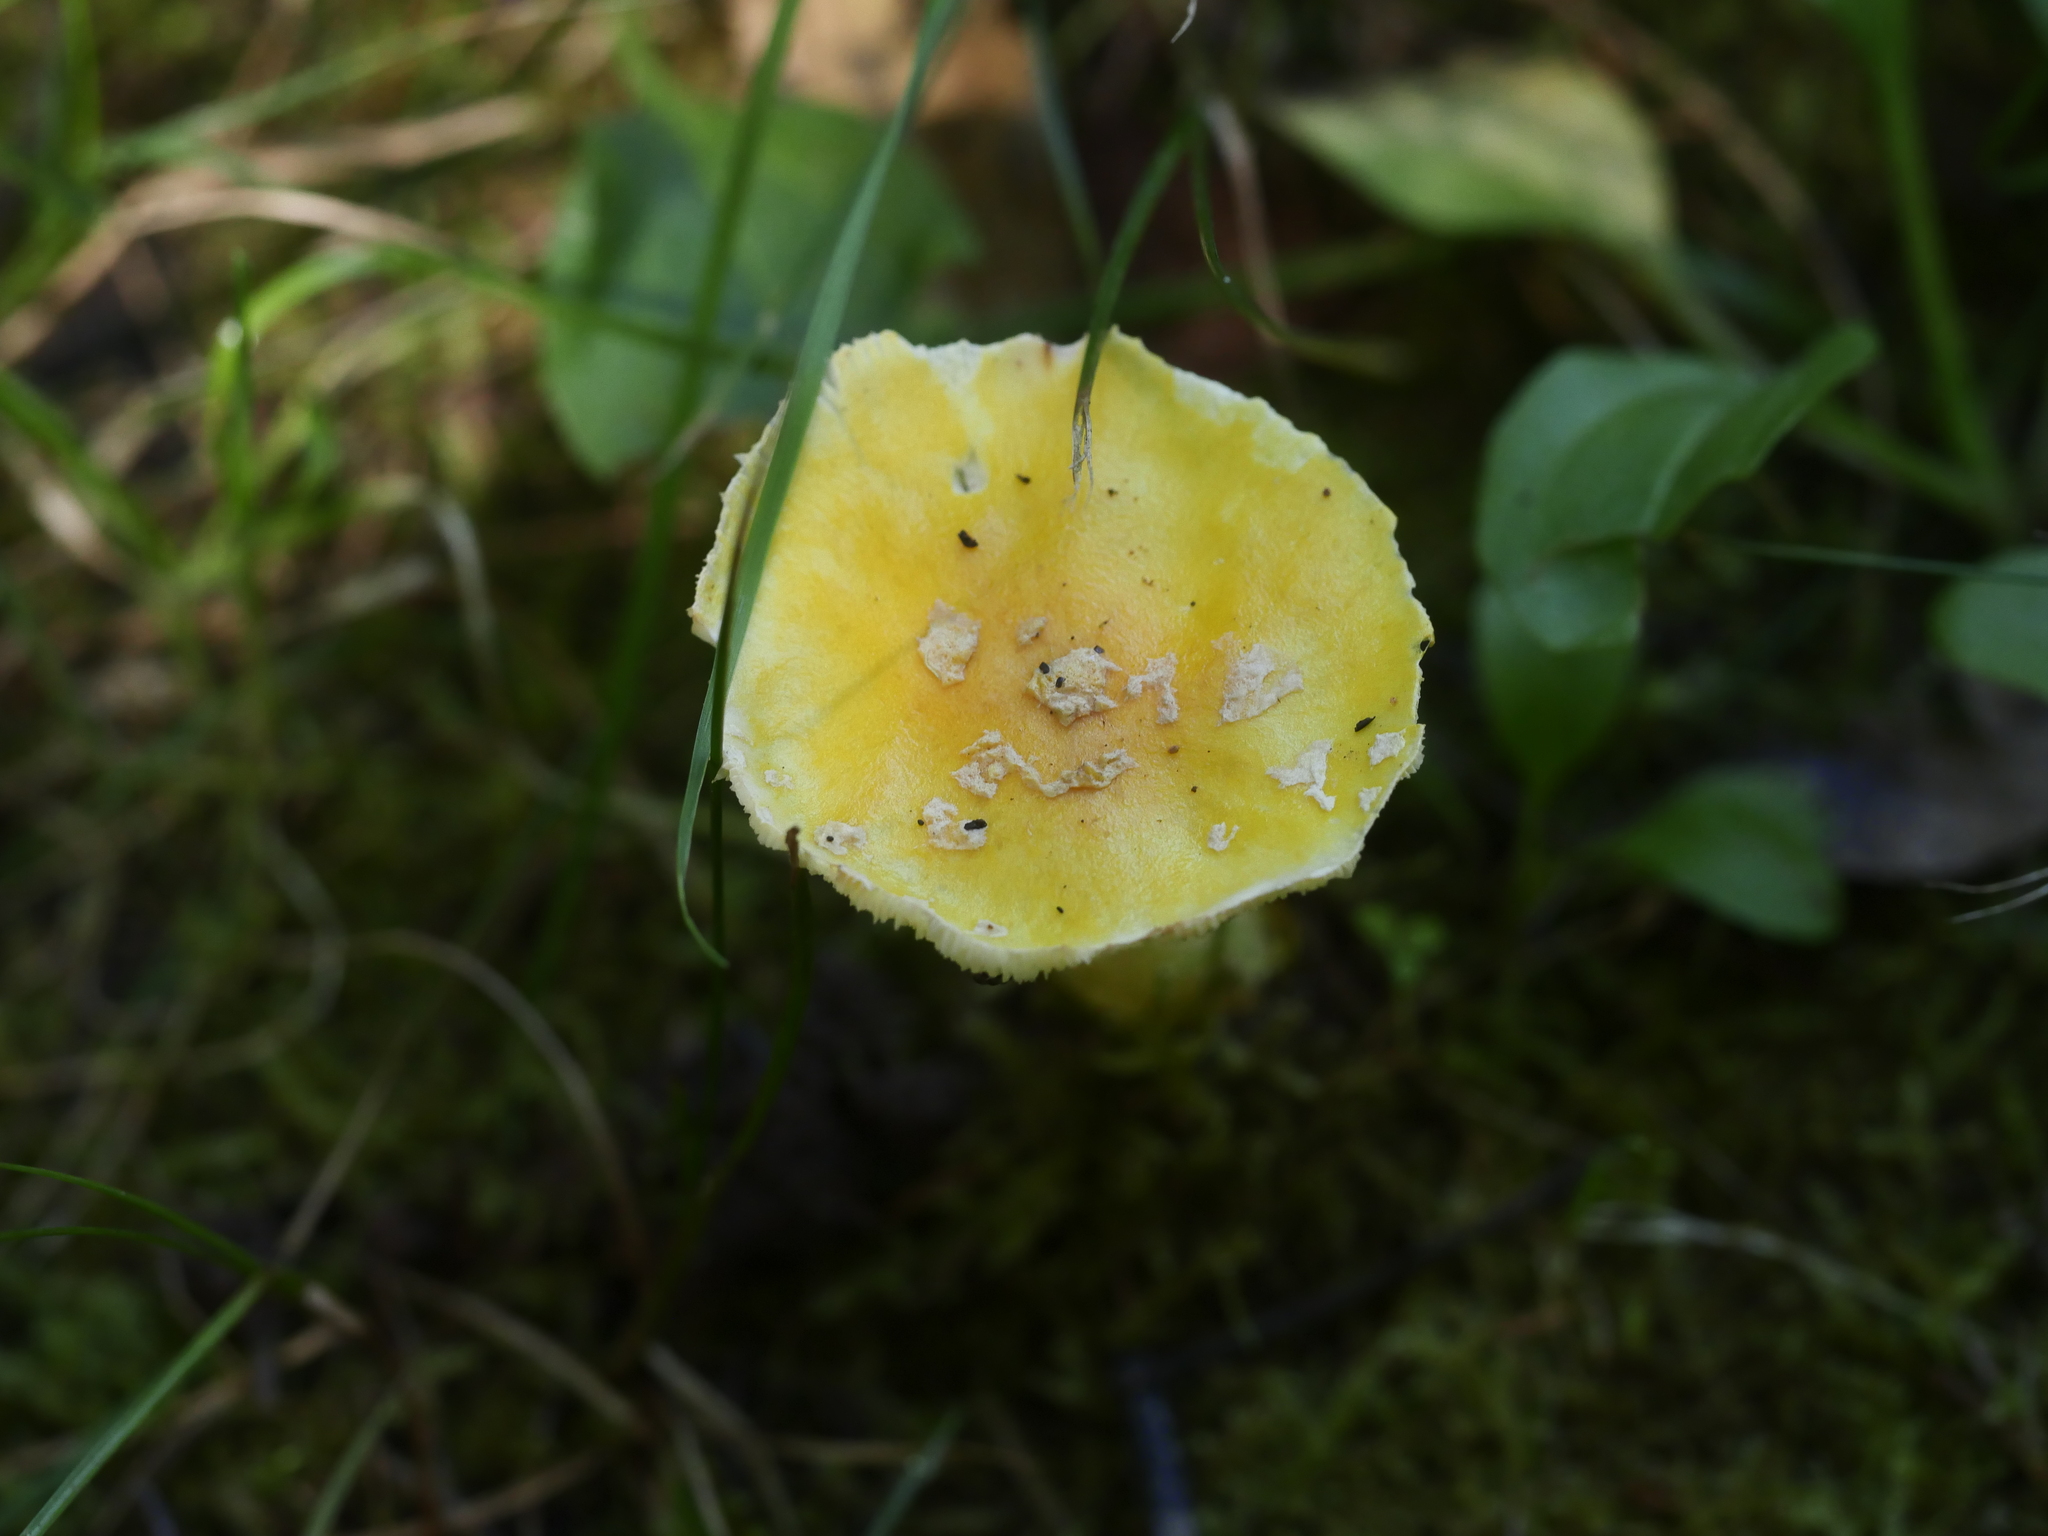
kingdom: Fungi
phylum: Basidiomycota
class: Agaricomycetes
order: Agaricales
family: Amanitaceae
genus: Amanita
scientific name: Amanita muscaria
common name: Fly agaric
